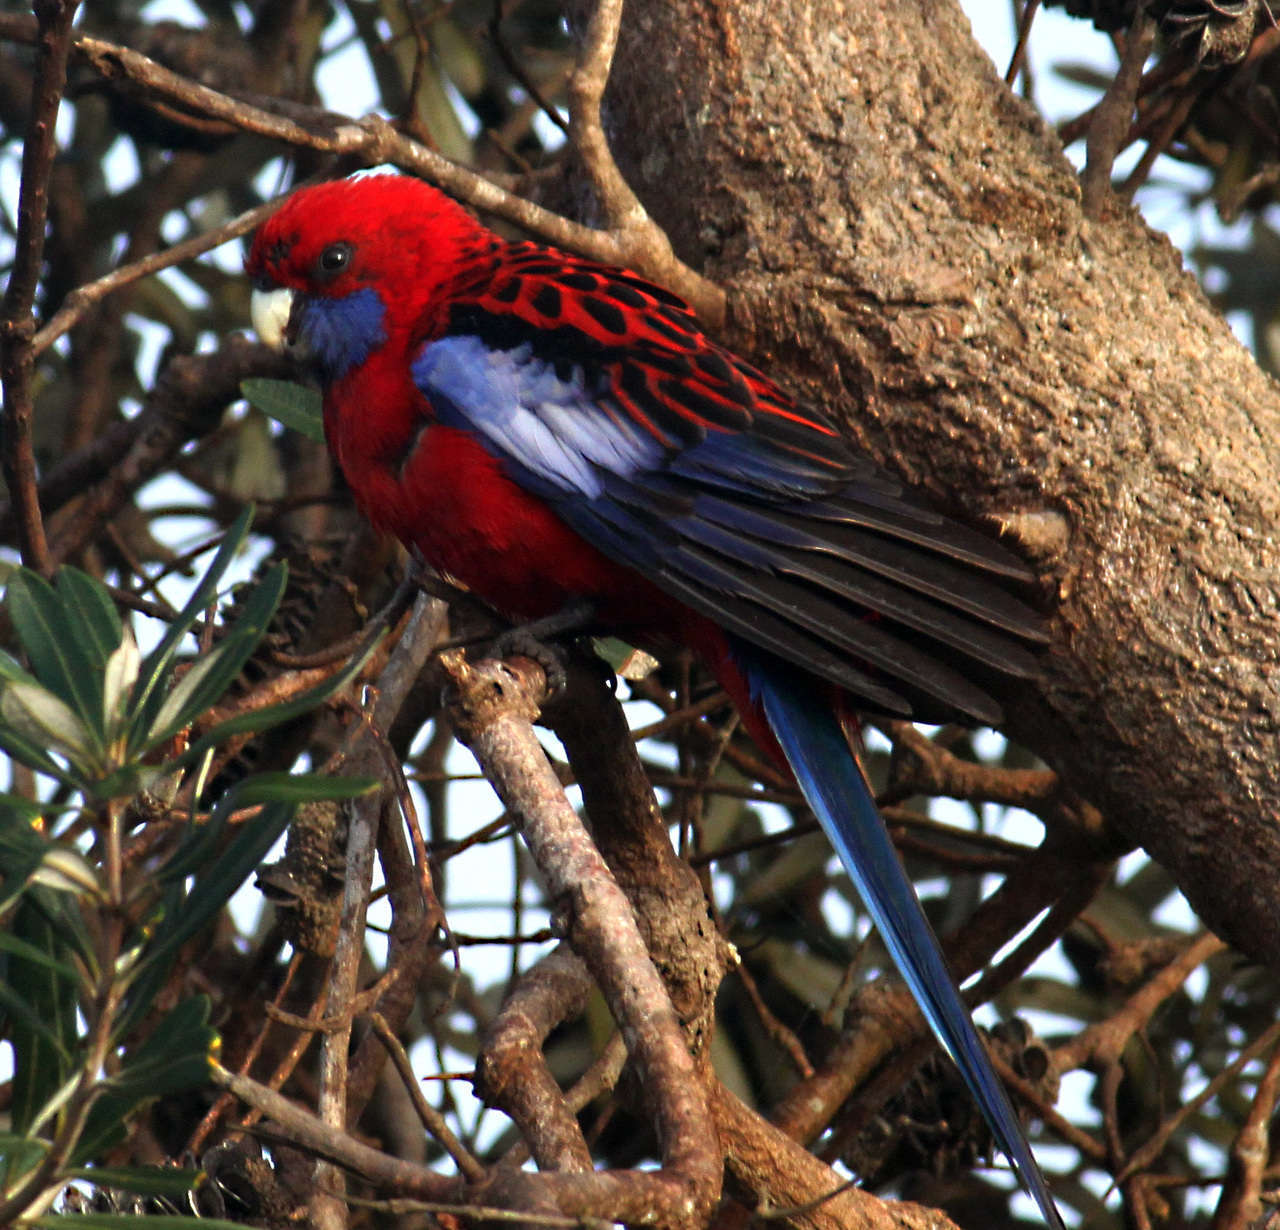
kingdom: Animalia
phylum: Chordata
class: Aves
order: Psittaciformes
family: Psittacidae
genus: Platycercus
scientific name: Platycercus elegans
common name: Crimson rosella
